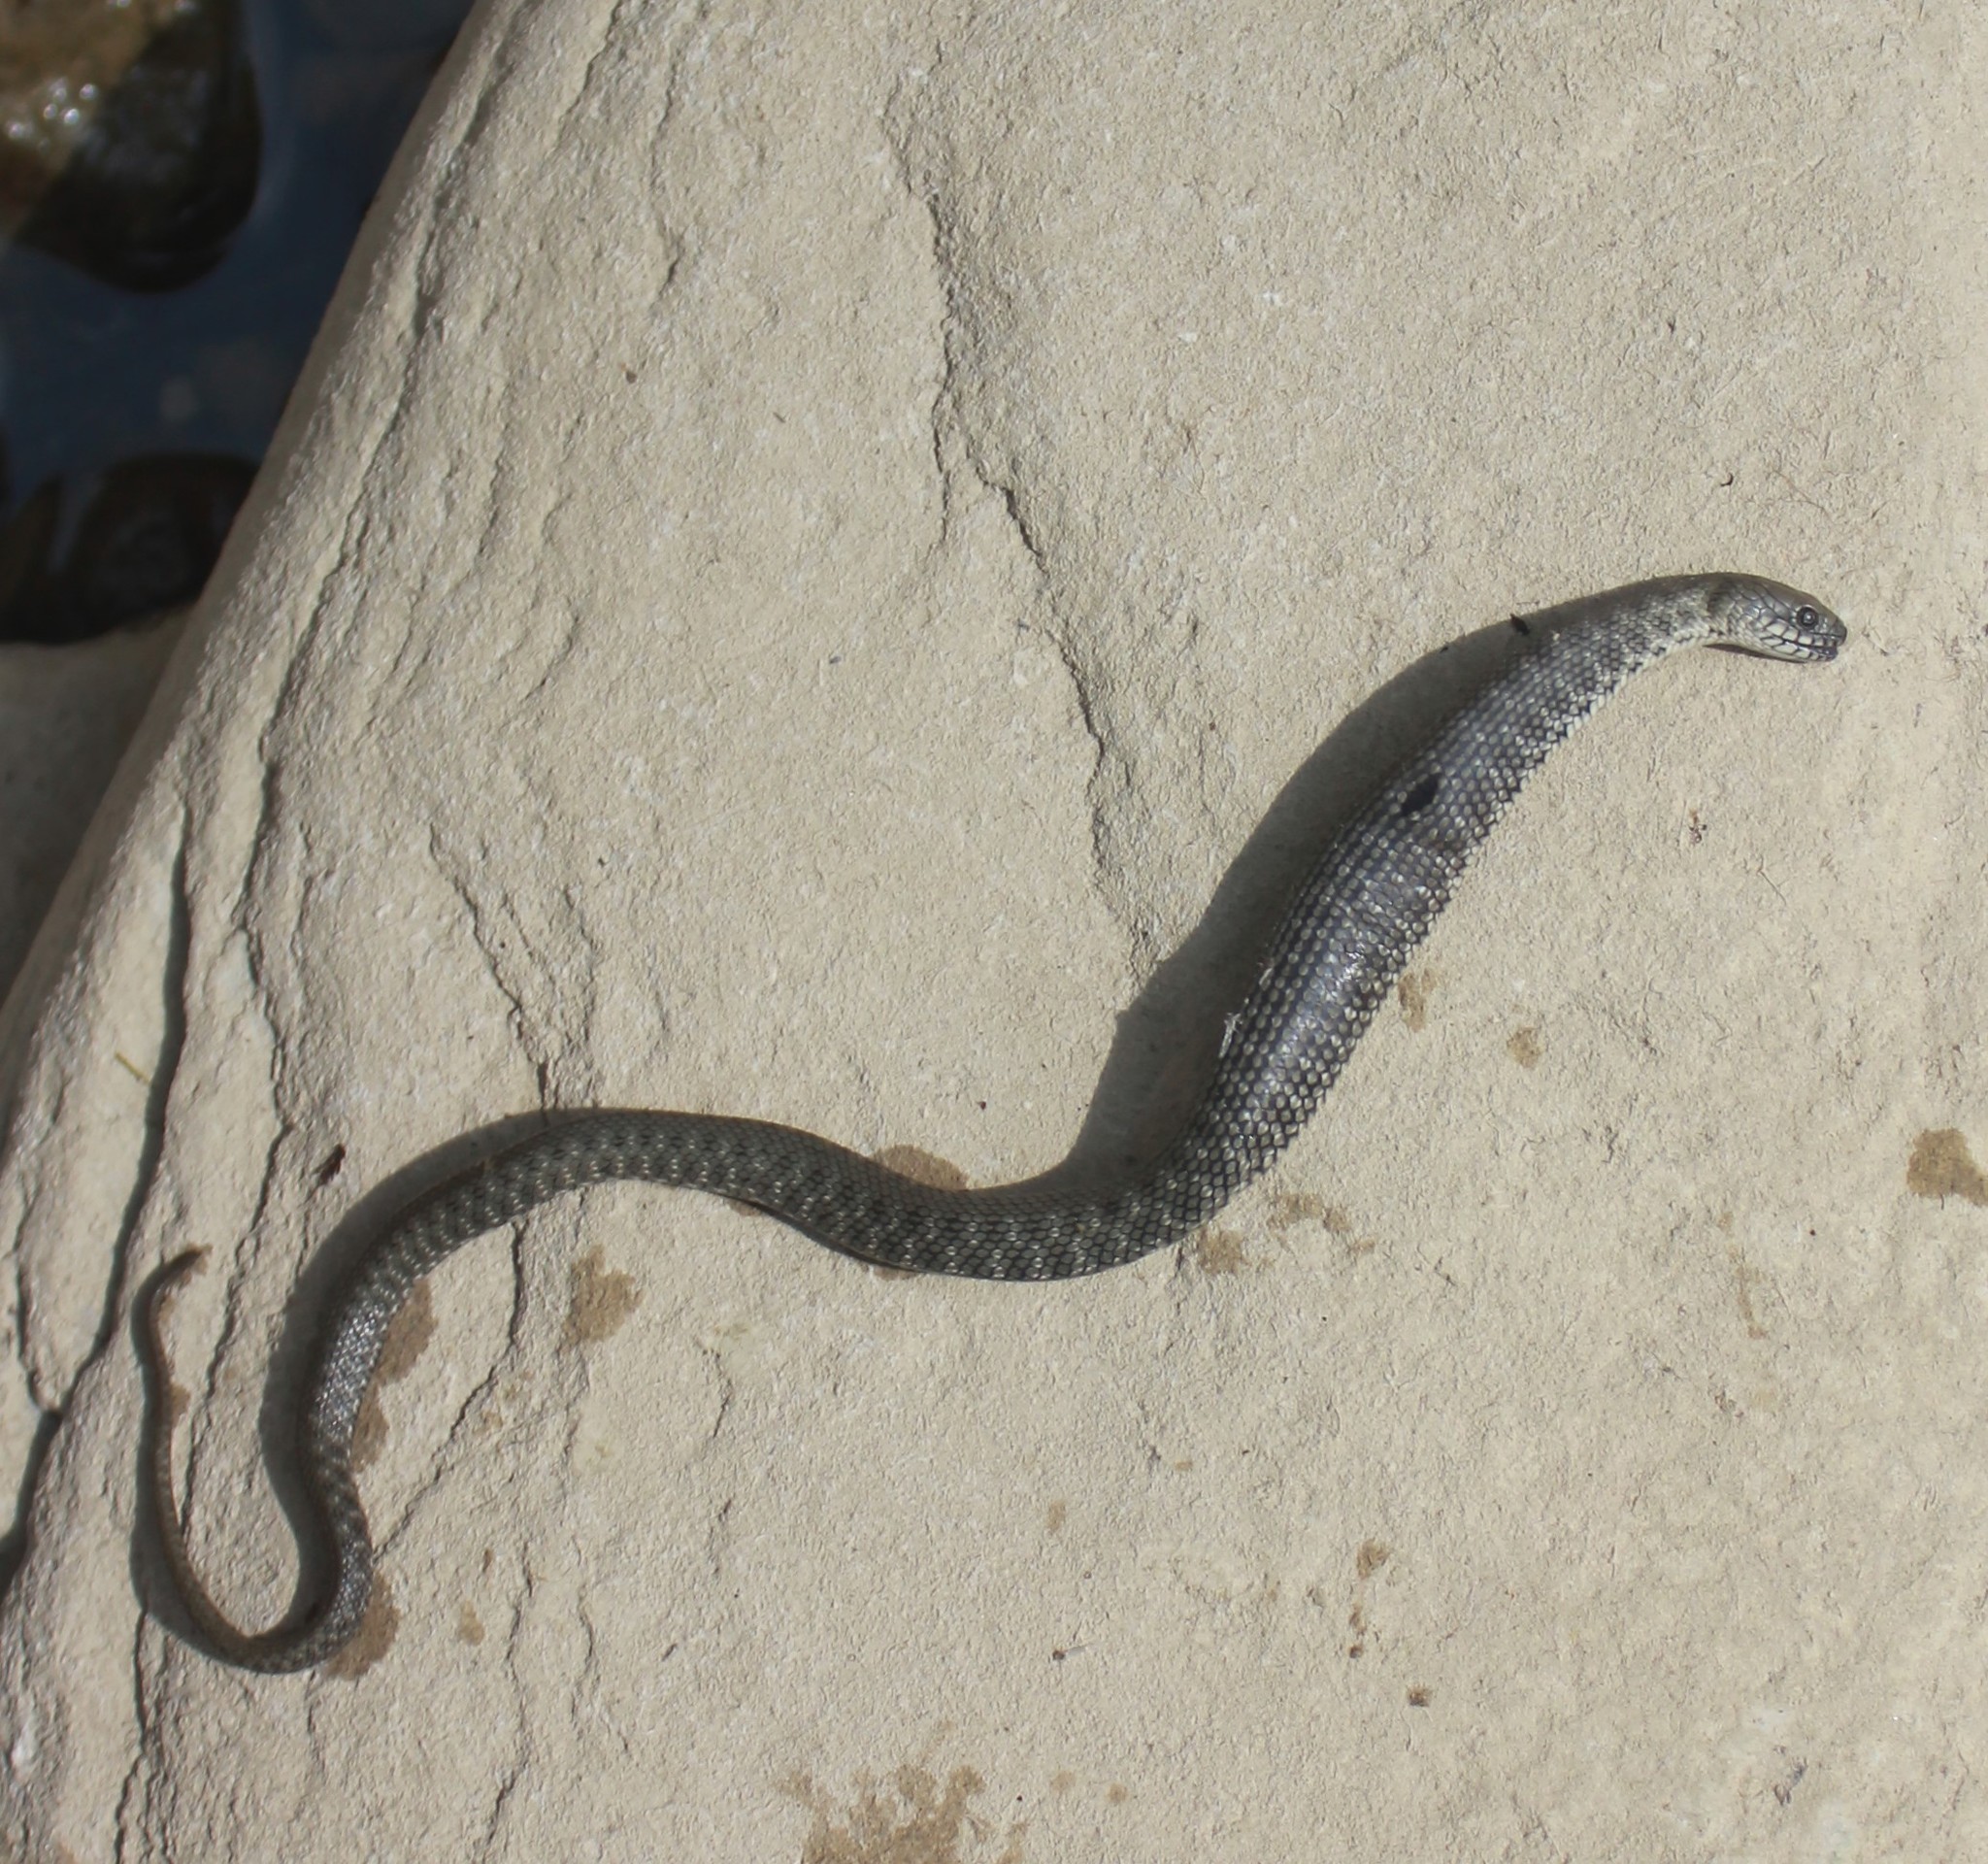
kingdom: Animalia
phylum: Chordata
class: Squamata
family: Colubridae
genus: Natrix
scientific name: Natrix tessellata
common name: Dice snake
